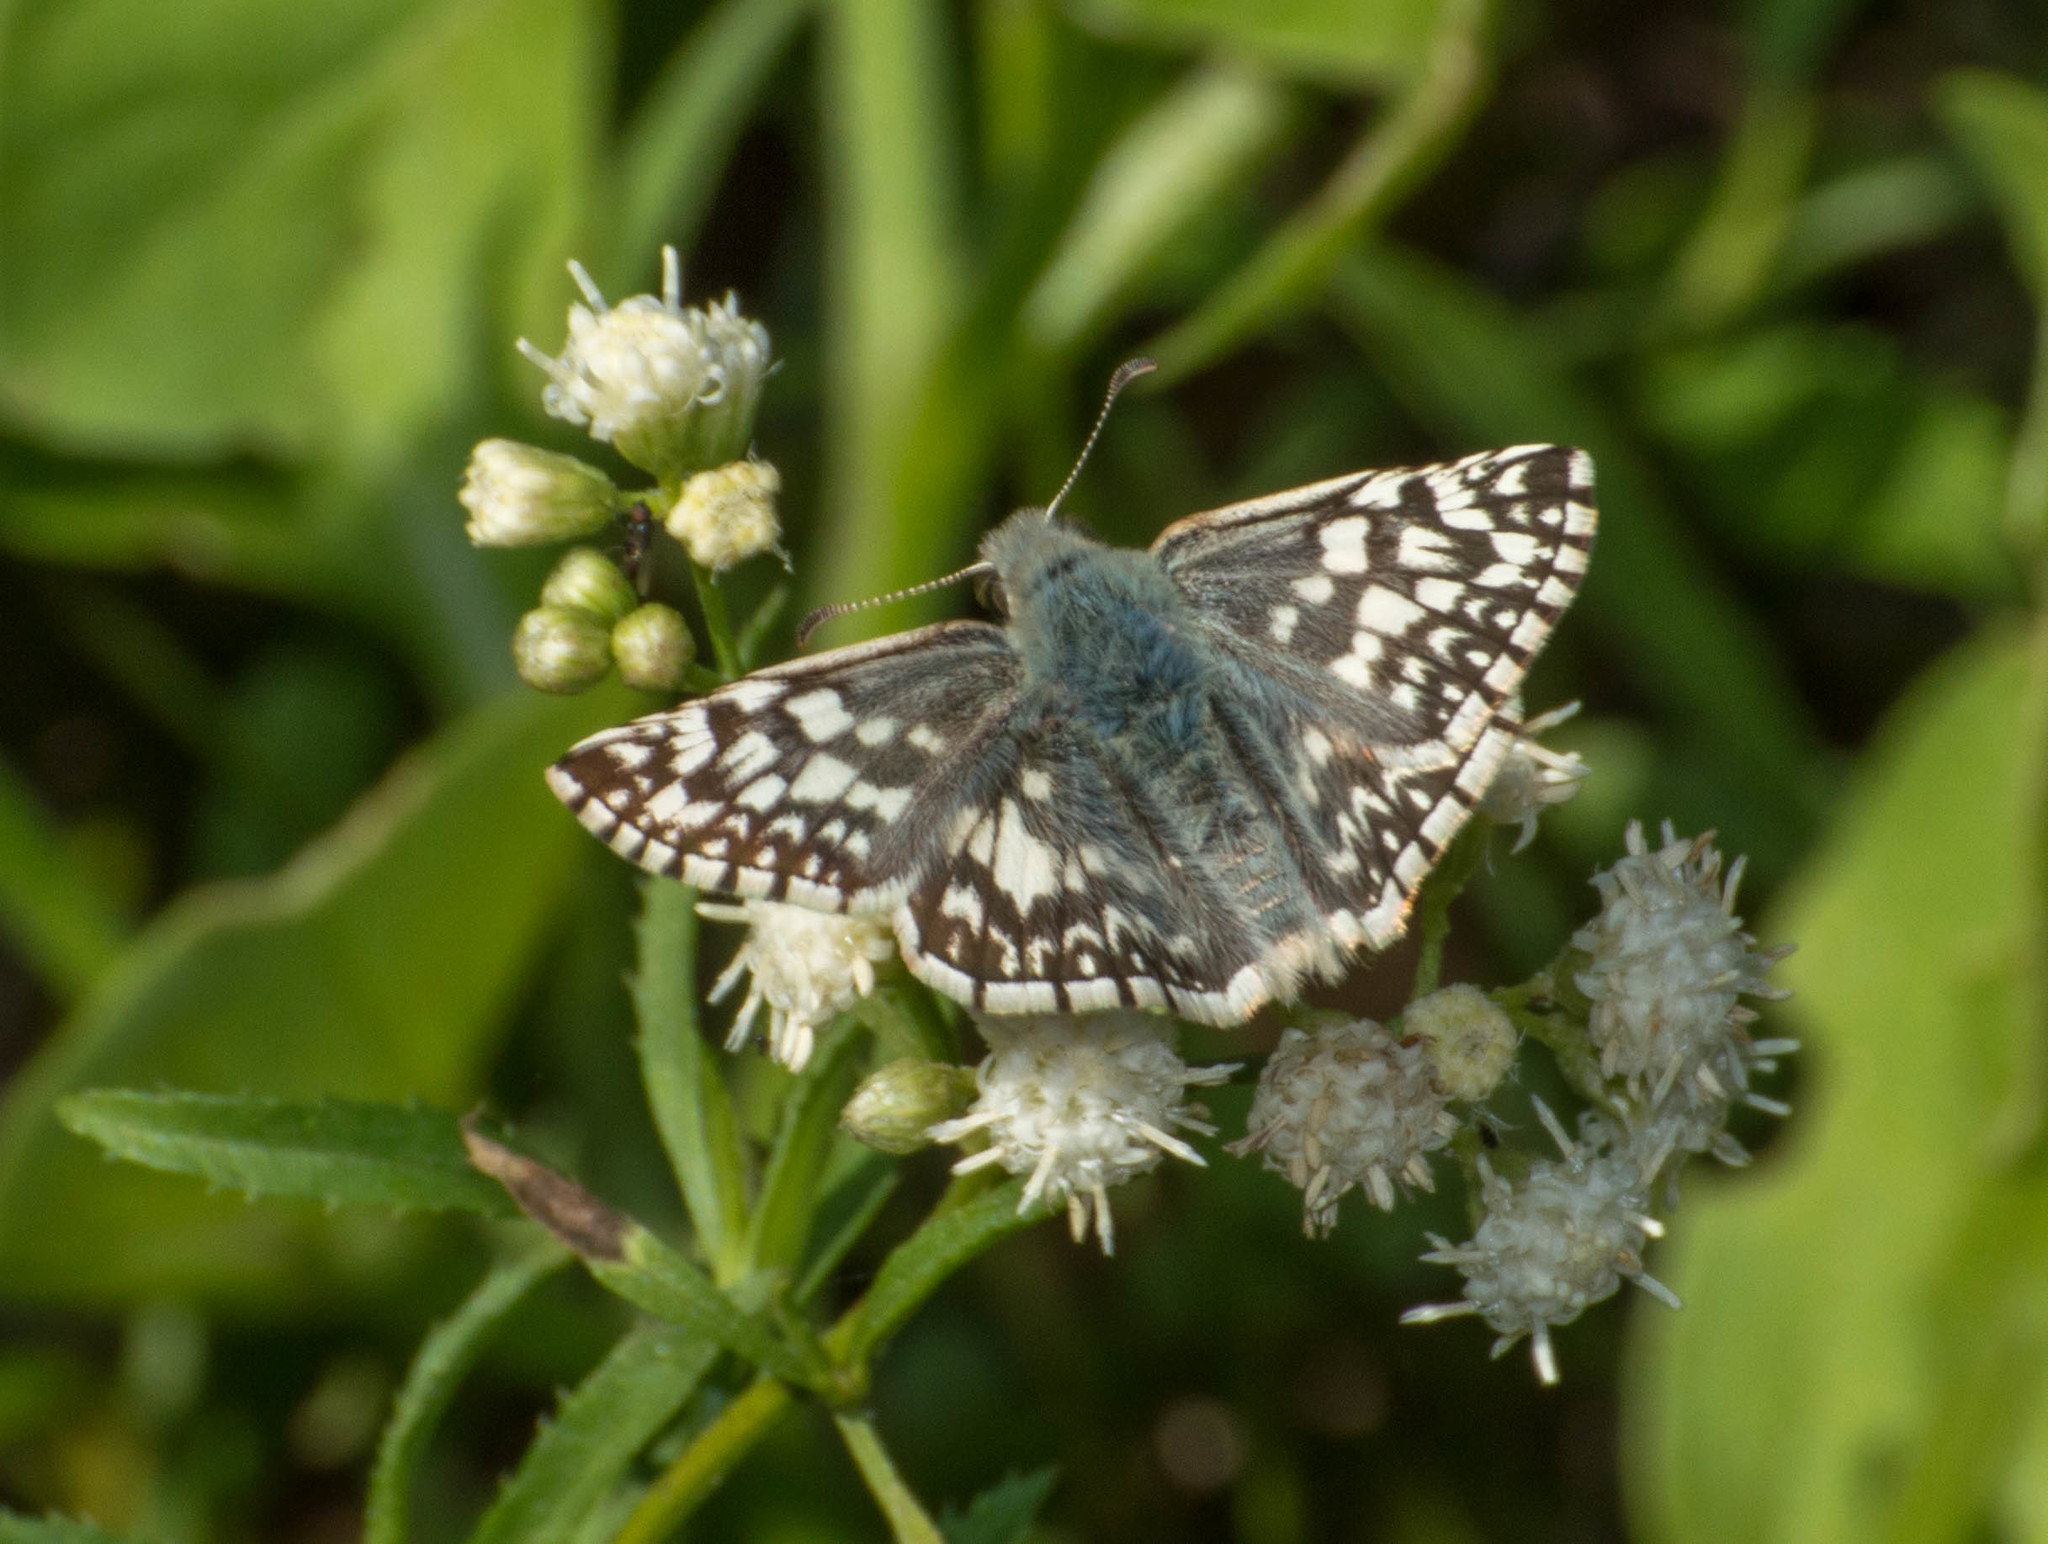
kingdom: Animalia
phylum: Arthropoda
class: Insecta
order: Lepidoptera
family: Hesperiidae
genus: Heliopetes
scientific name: Heliopetes americanus
